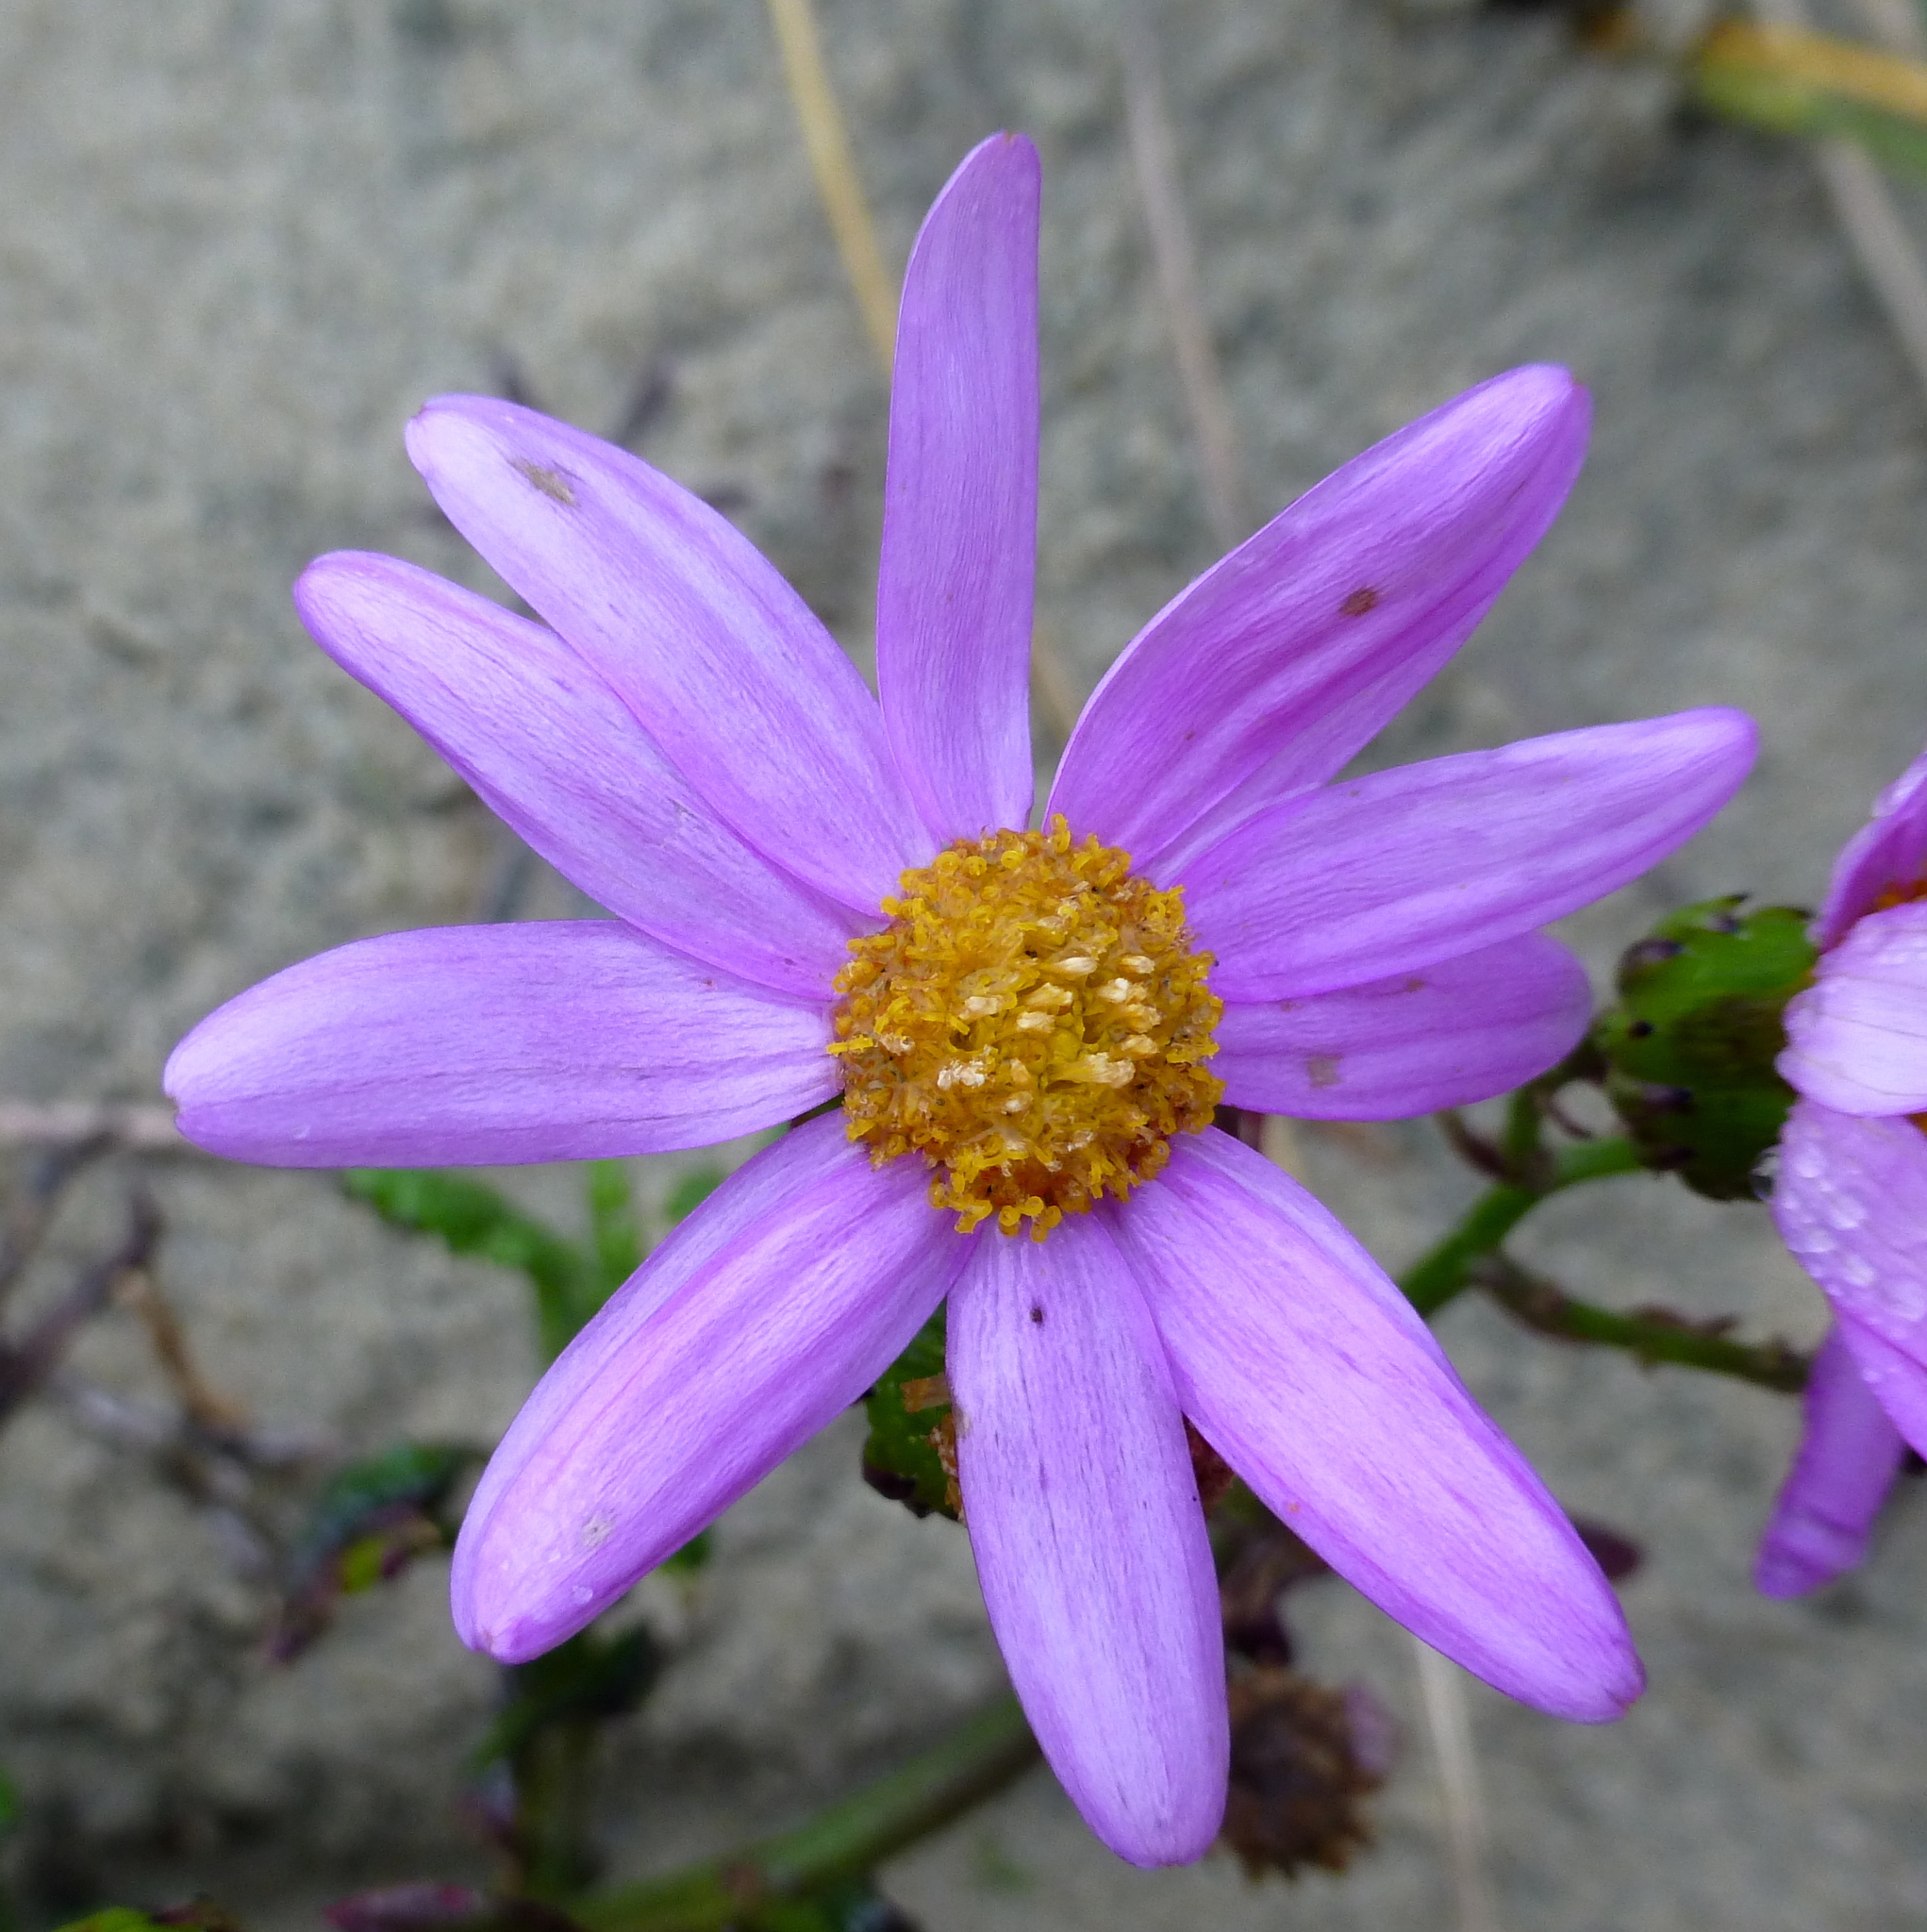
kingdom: Plantae
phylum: Tracheophyta
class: Magnoliopsida
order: Asterales
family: Asteraceae
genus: Senecio
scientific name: Senecio elegans
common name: Purple groundsel
